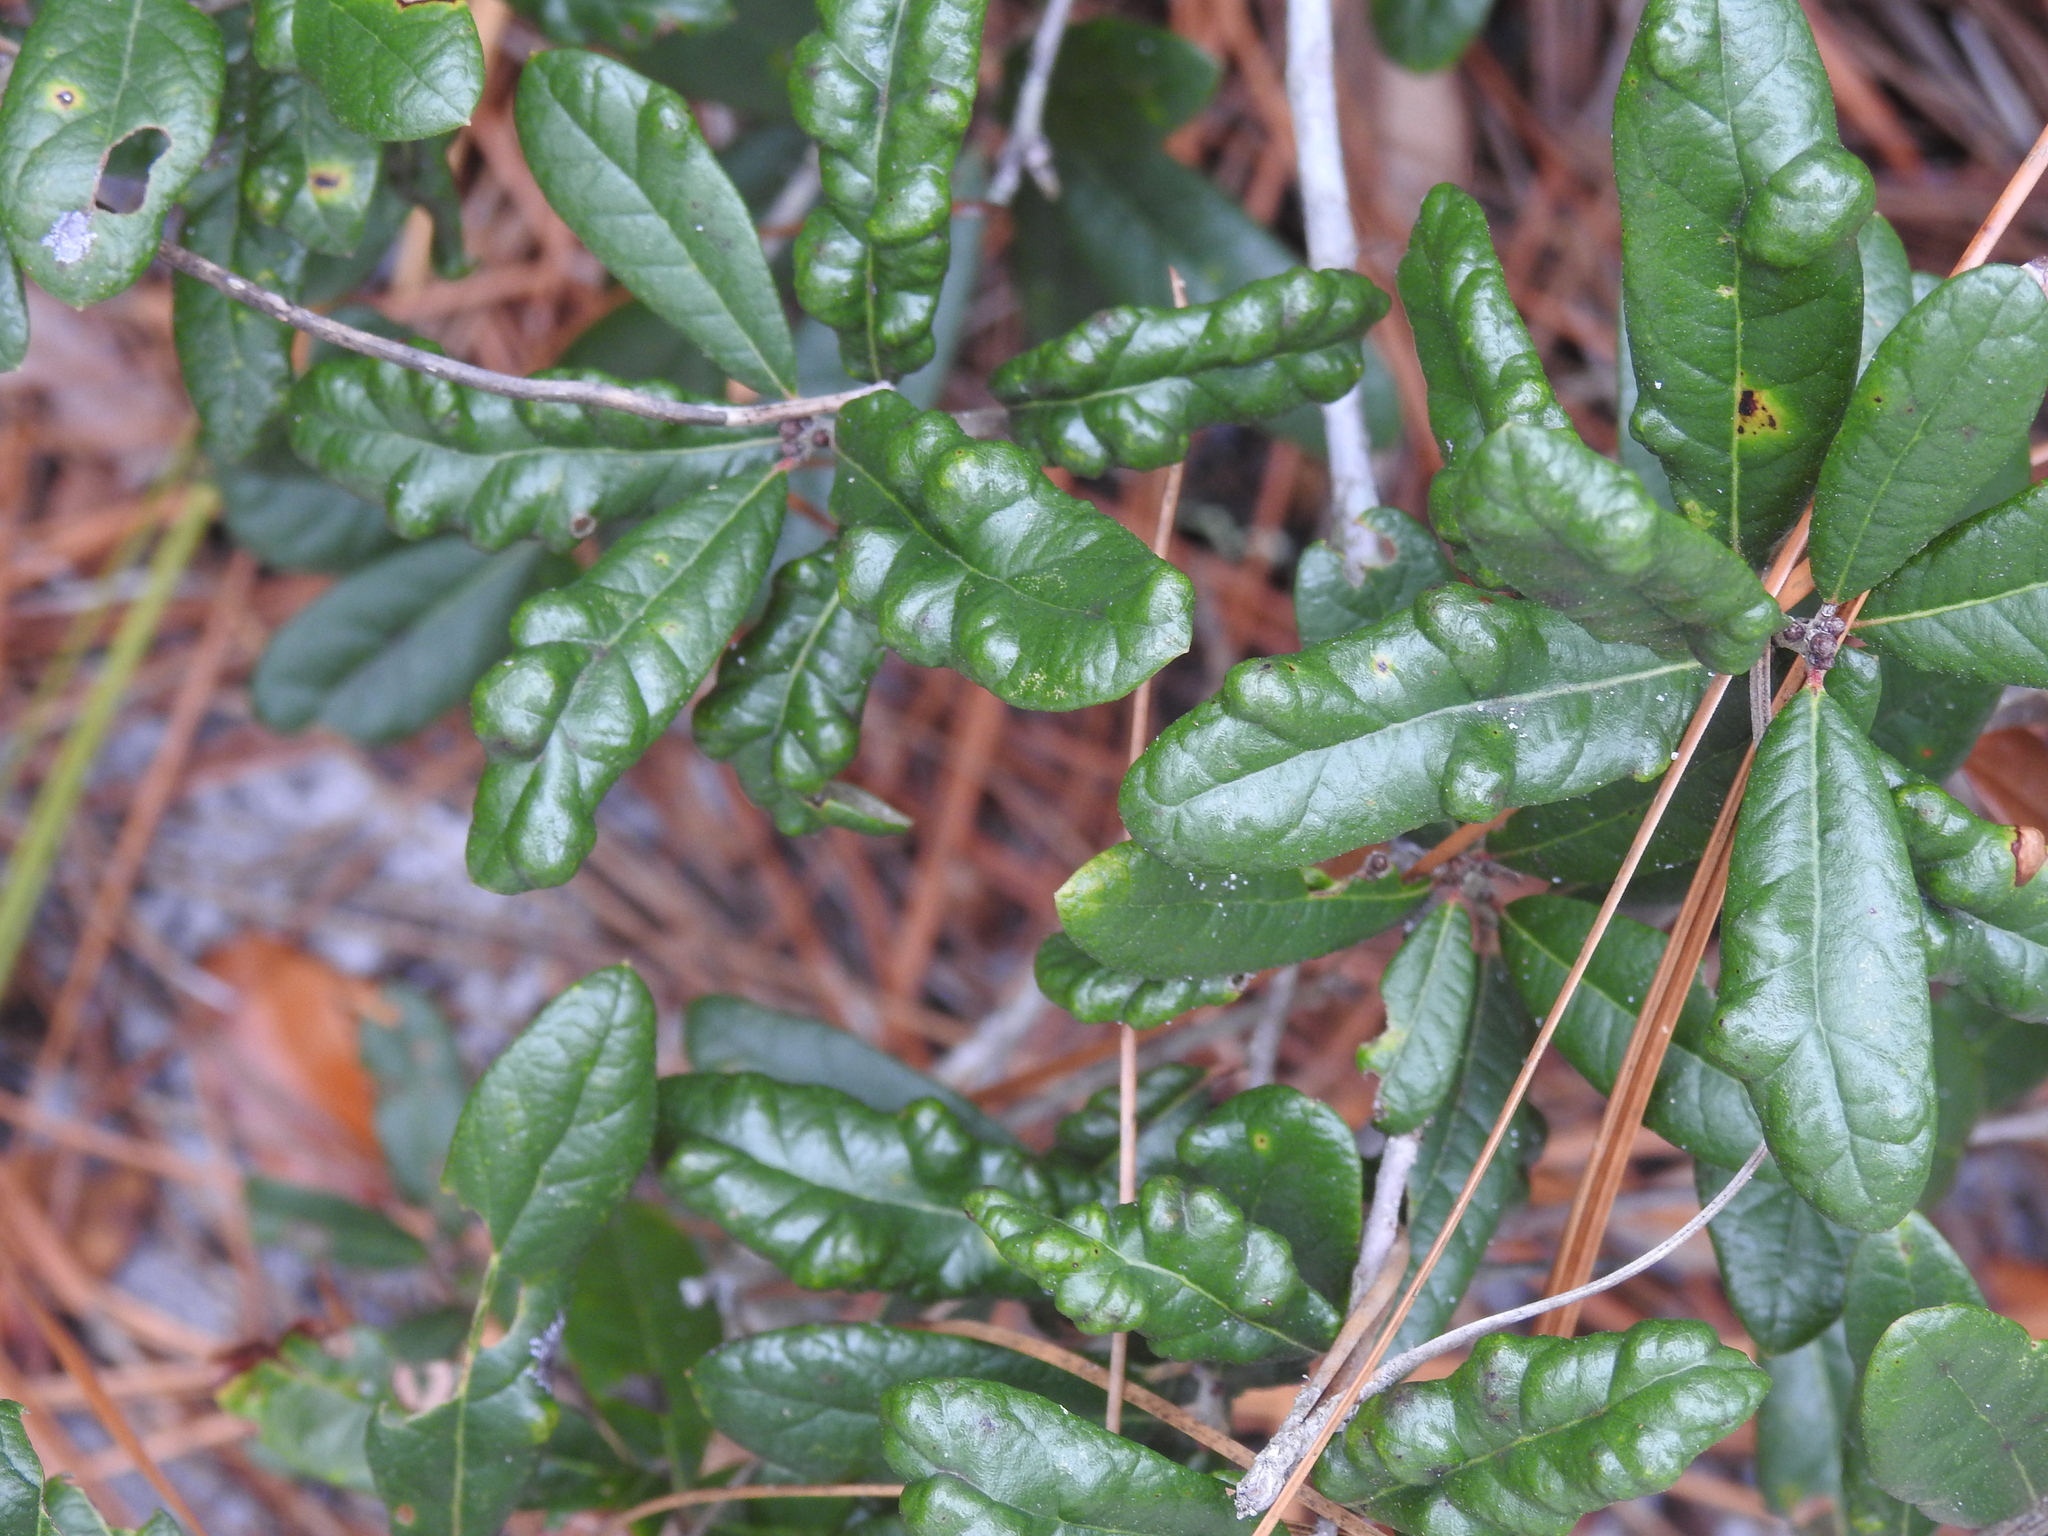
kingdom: Animalia
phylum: Arthropoda
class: Arachnida
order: Trombidiformes
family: Eriophyidae
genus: Aceria
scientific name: Aceria quercina
